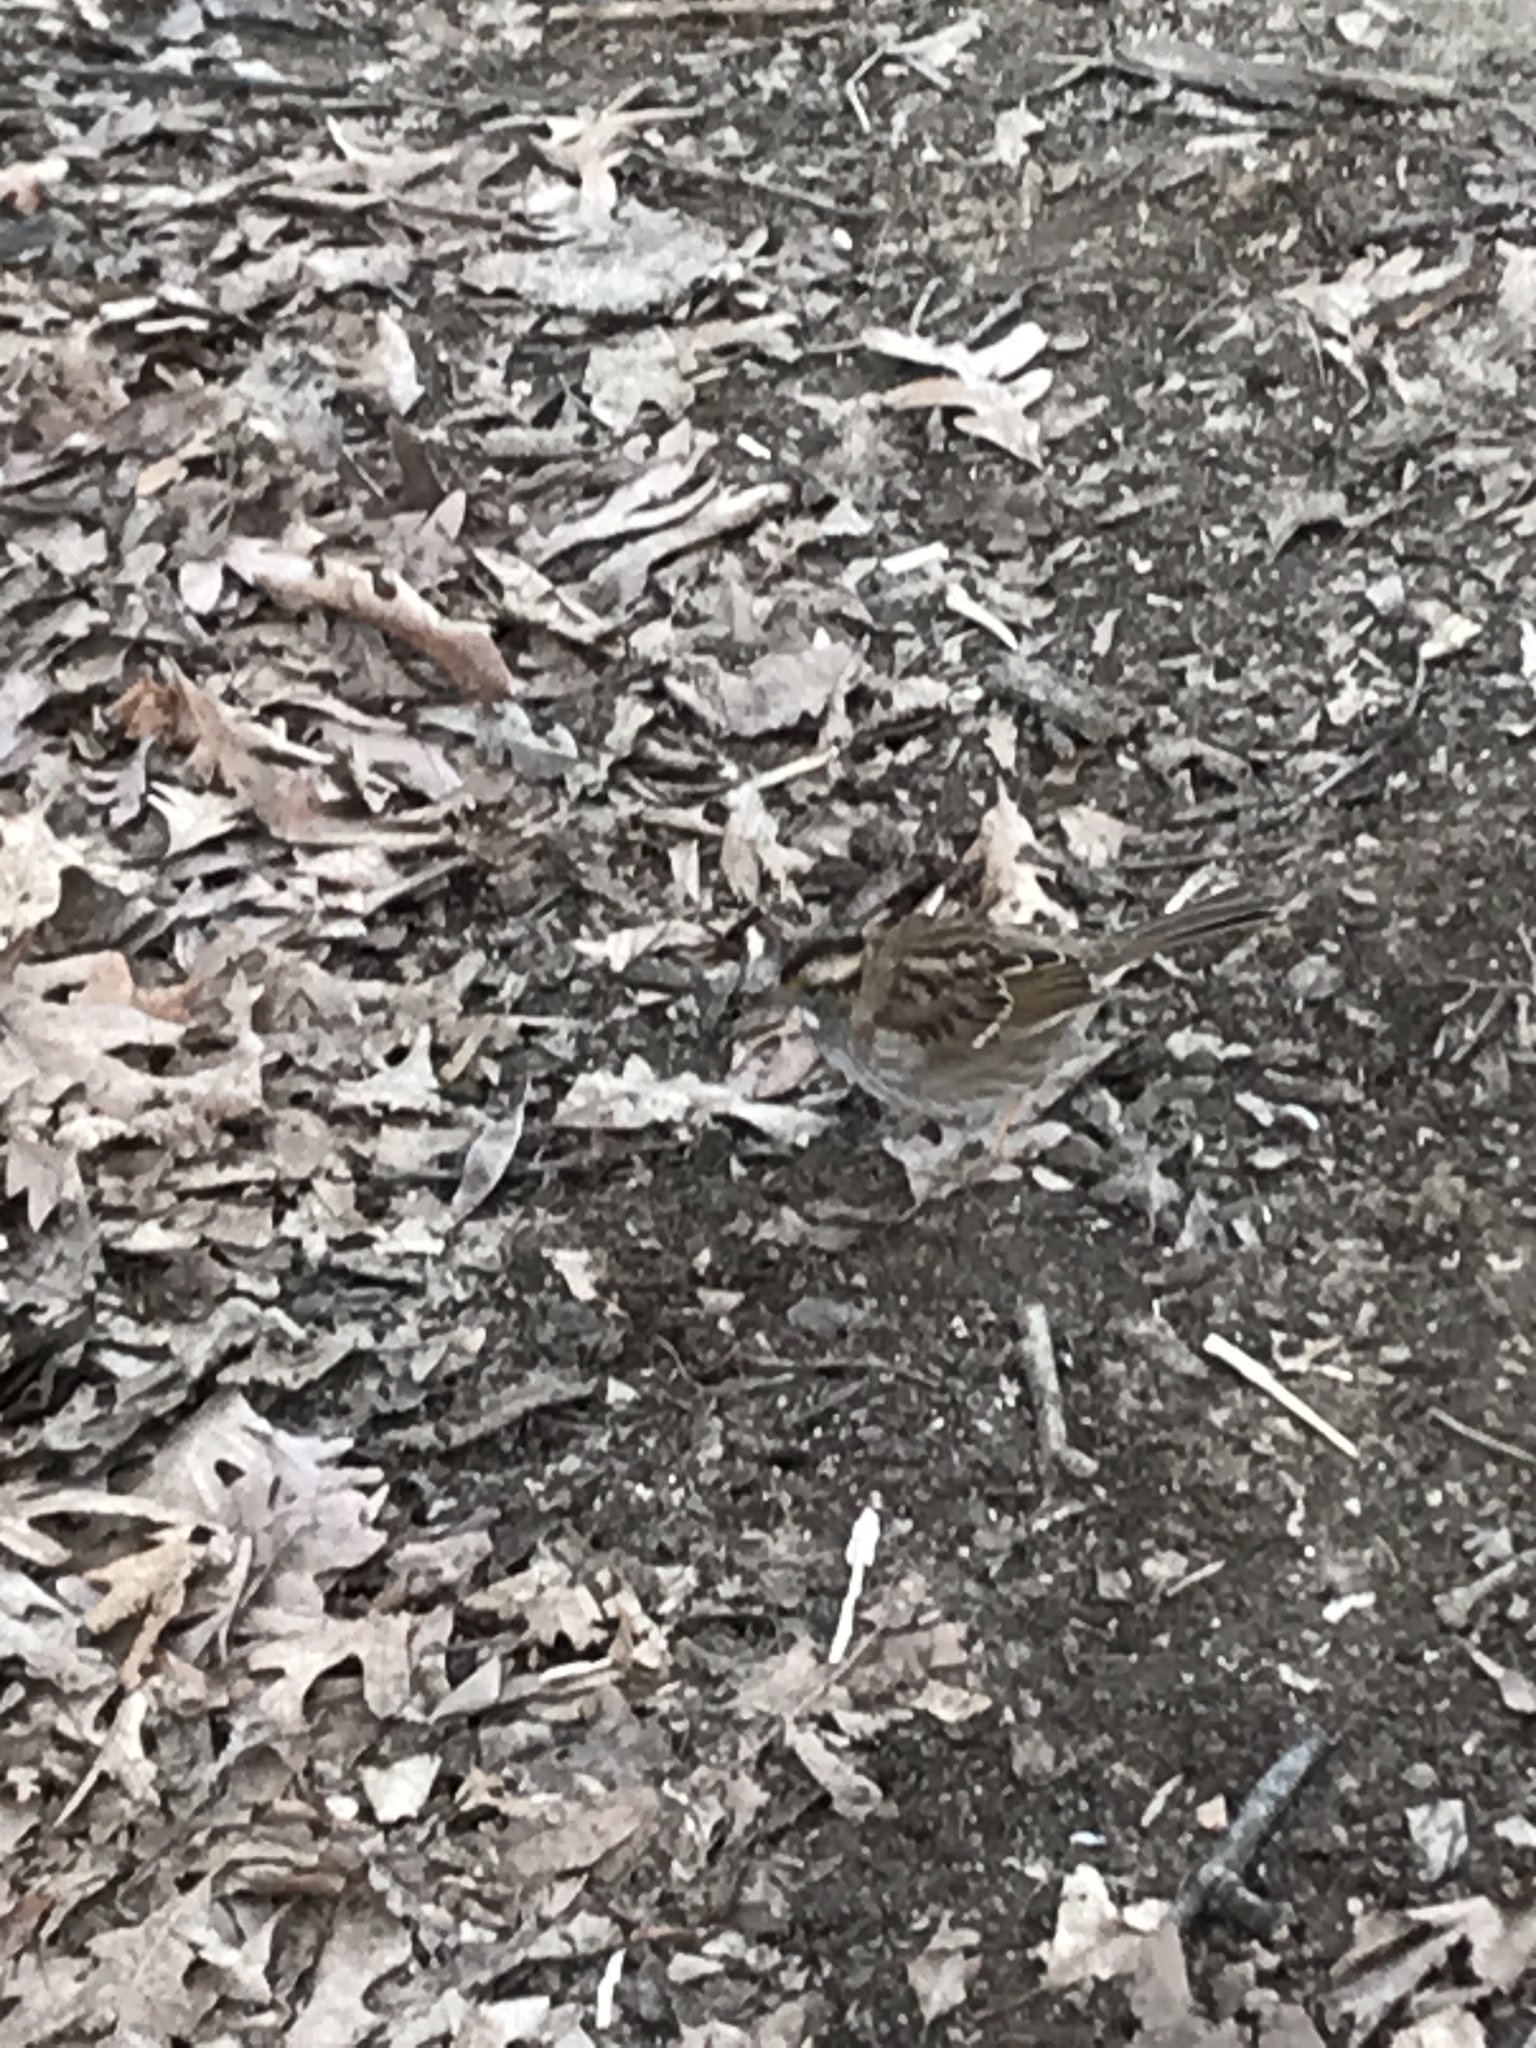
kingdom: Animalia
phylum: Chordata
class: Aves
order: Passeriformes
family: Passerellidae
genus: Zonotrichia
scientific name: Zonotrichia albicollis
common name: White-throated sparrow
